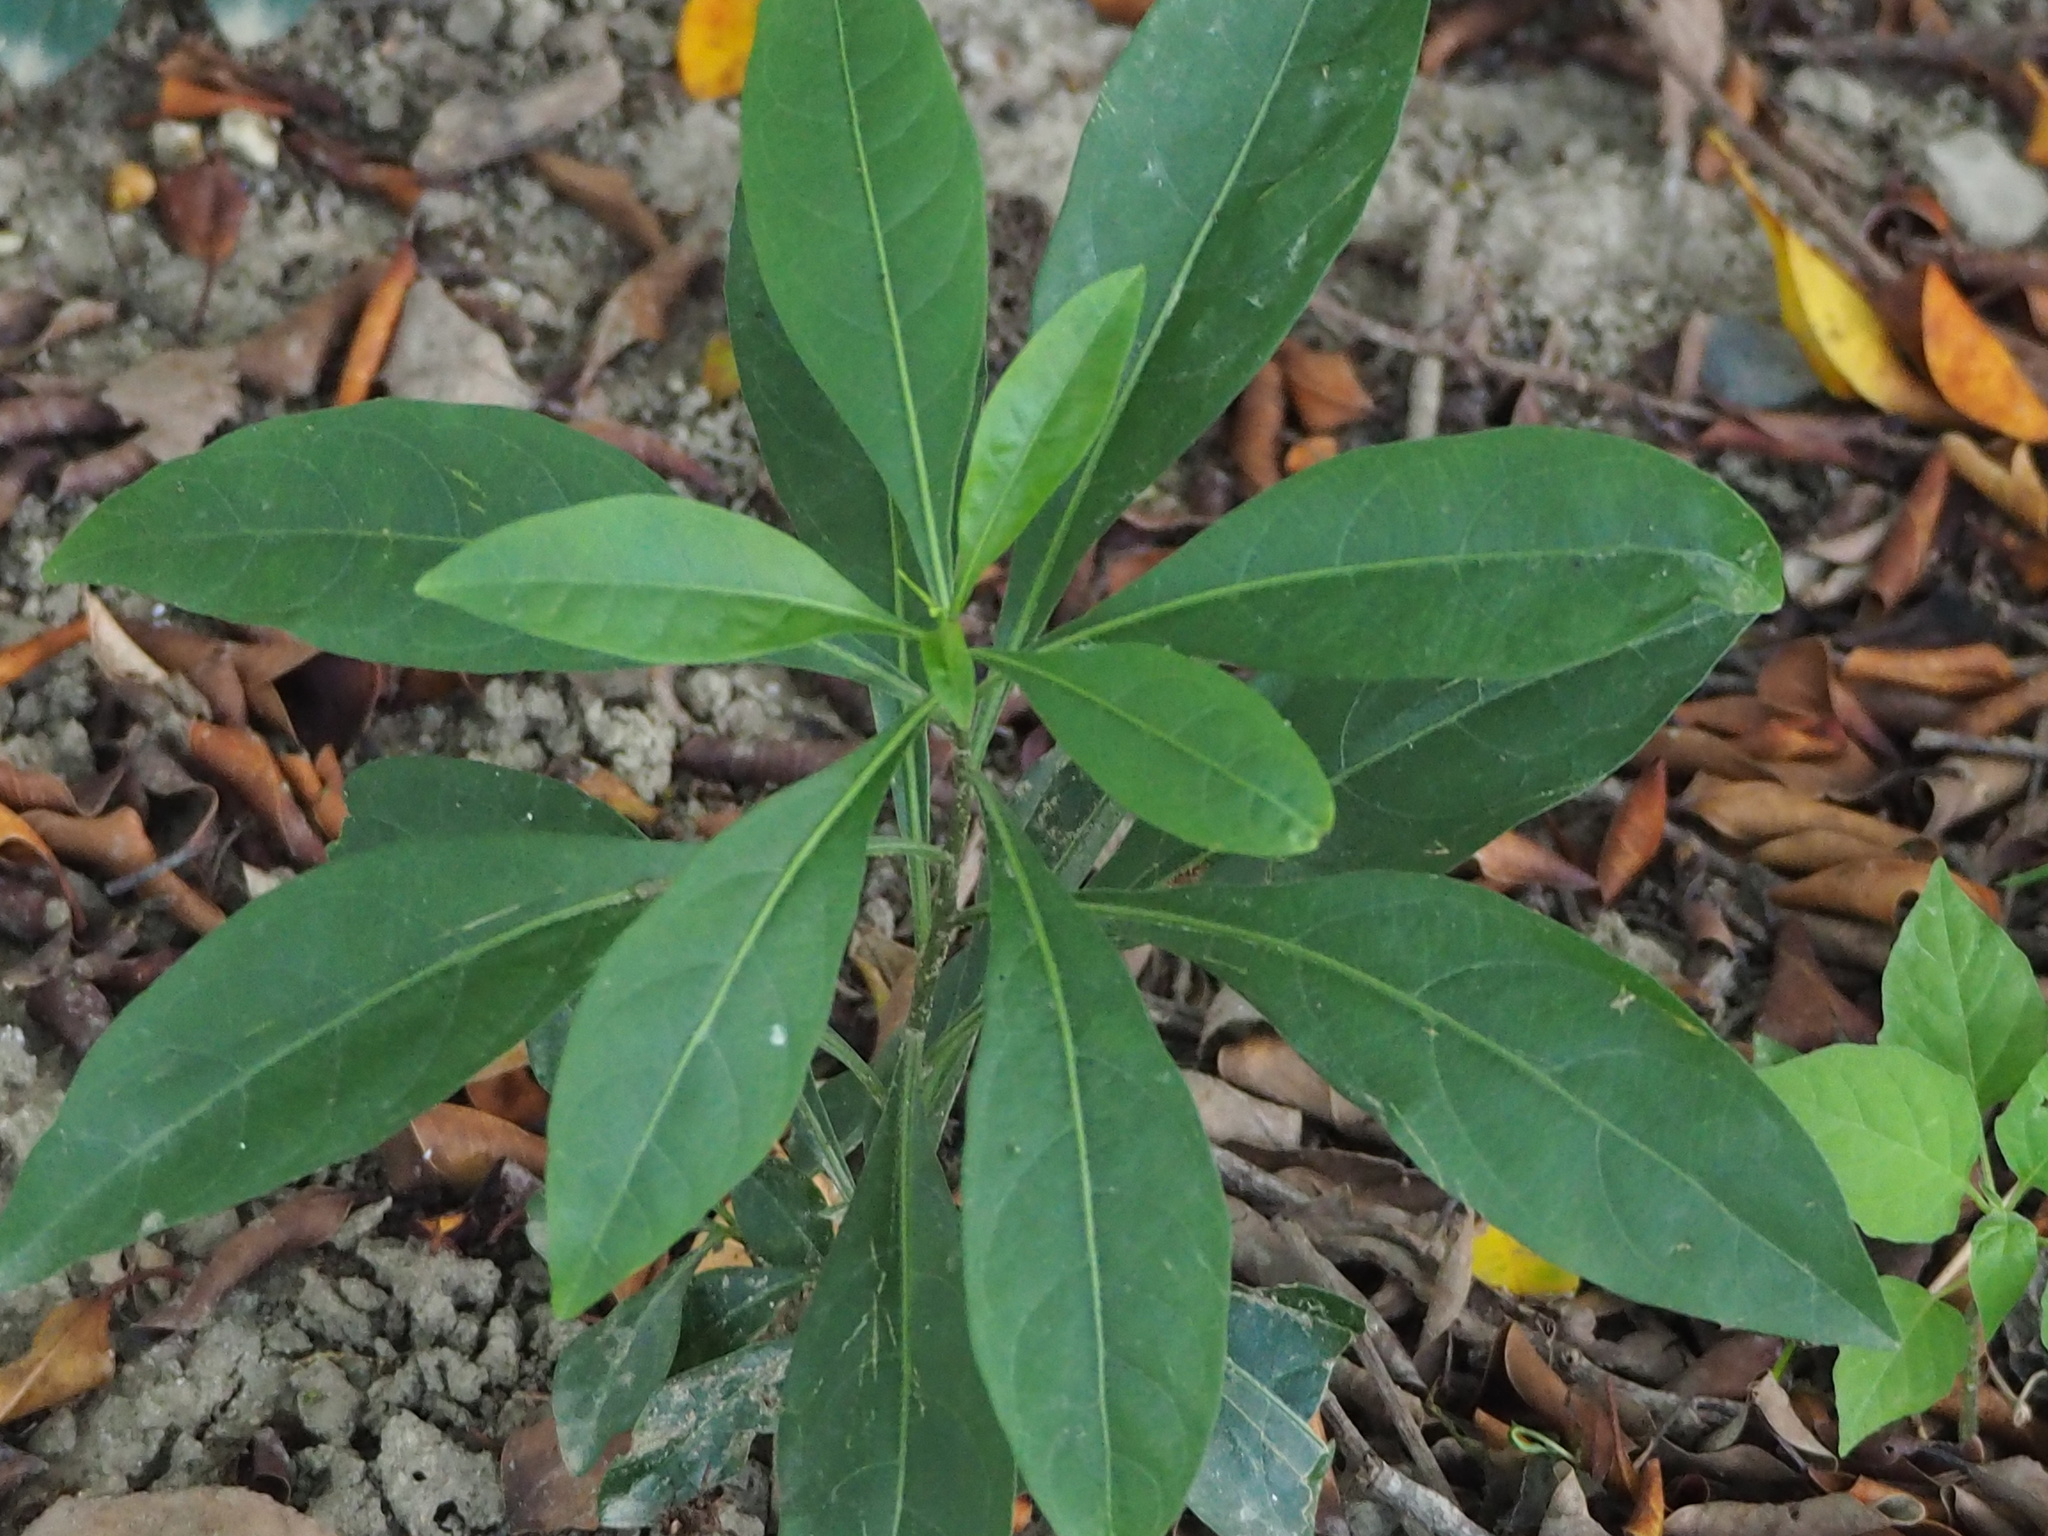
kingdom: Plantae
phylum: Tracheophyta
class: Magnoliopsida
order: Solanales
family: Solanaceae
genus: Solanum
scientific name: Solanum diphyllum
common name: Twoleaf nightshade
